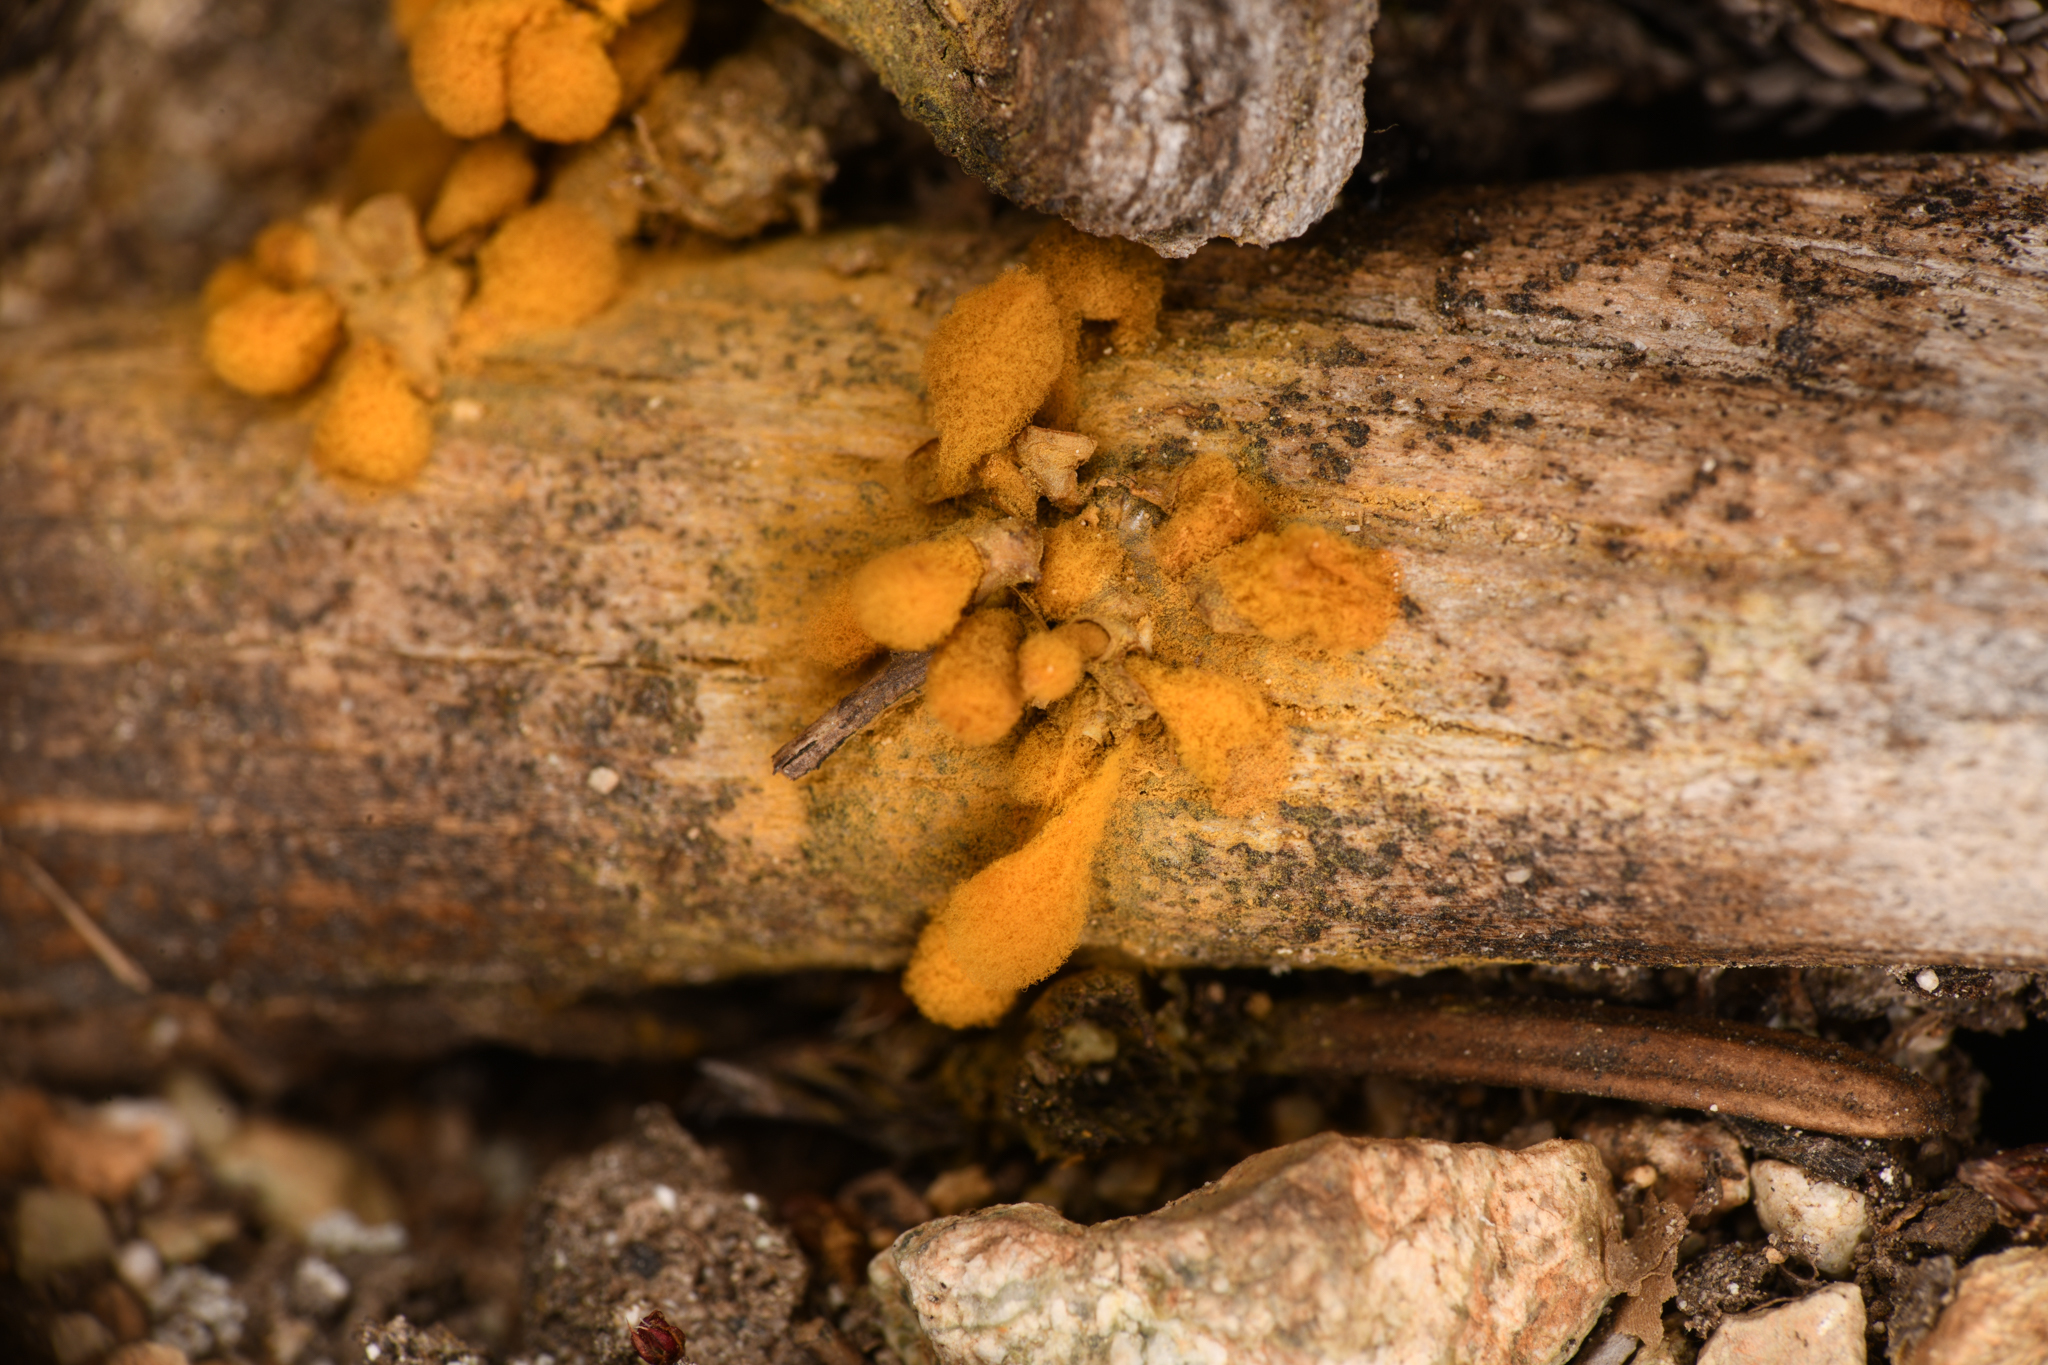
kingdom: Protozoa
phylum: Mycetozoa
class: Myxomycetes
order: Trichiales
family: Arcyriaceae
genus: Arcyria
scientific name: Arcyria versicolor
